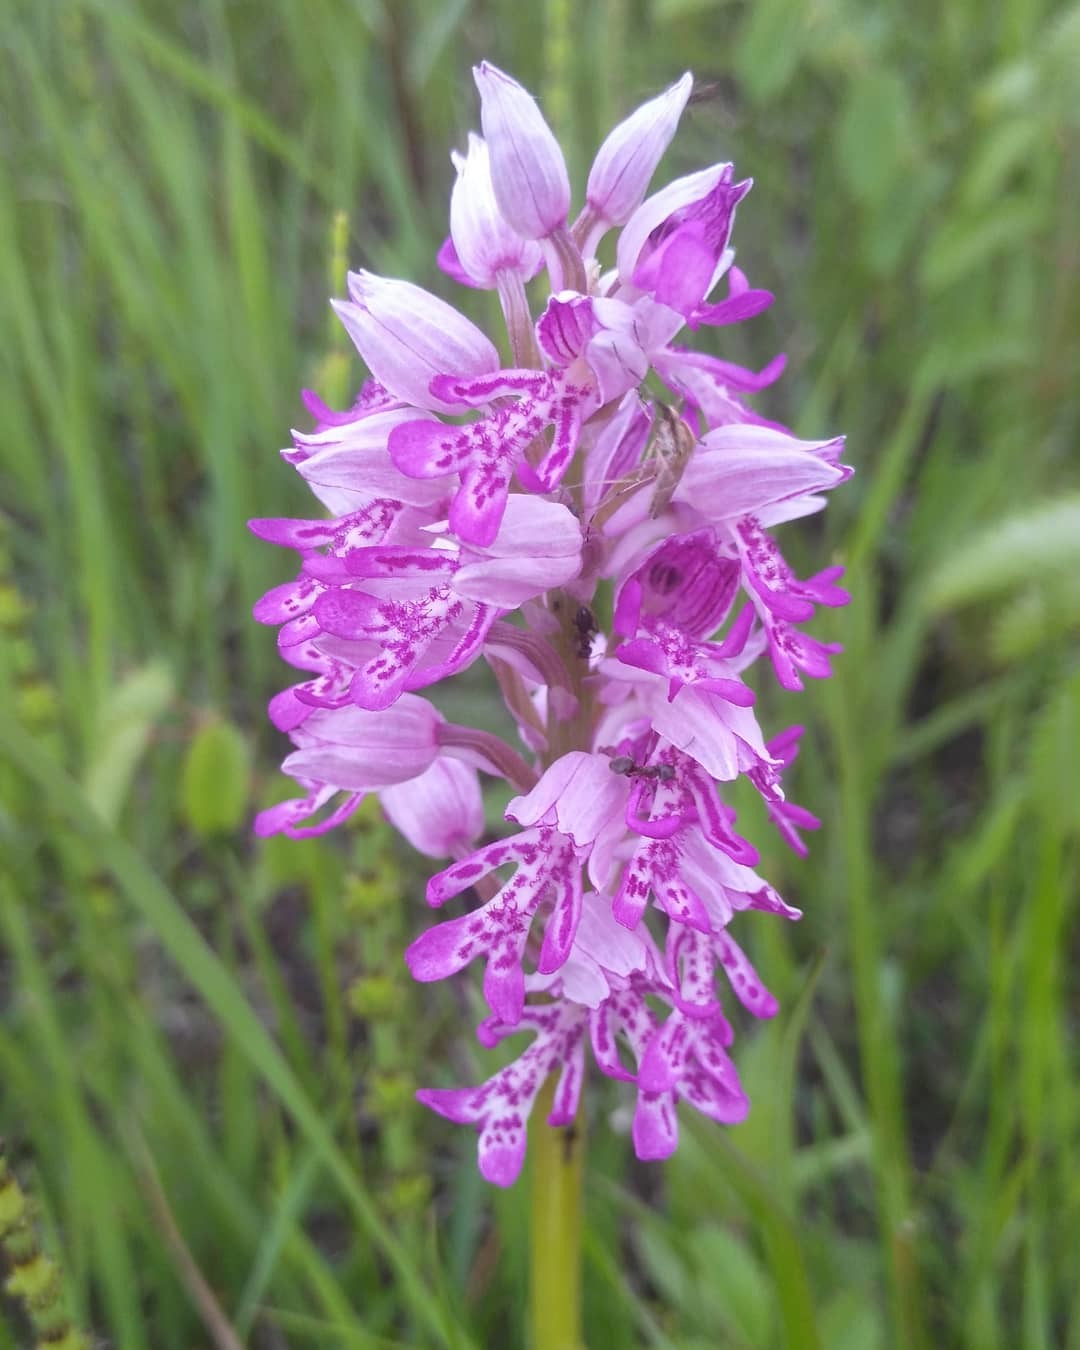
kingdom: Plantae
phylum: Tracheophyta
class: Liliopsida
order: Asparagales
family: Orchidaceae
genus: Orchis
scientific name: Orchis militaris
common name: Military orchid
